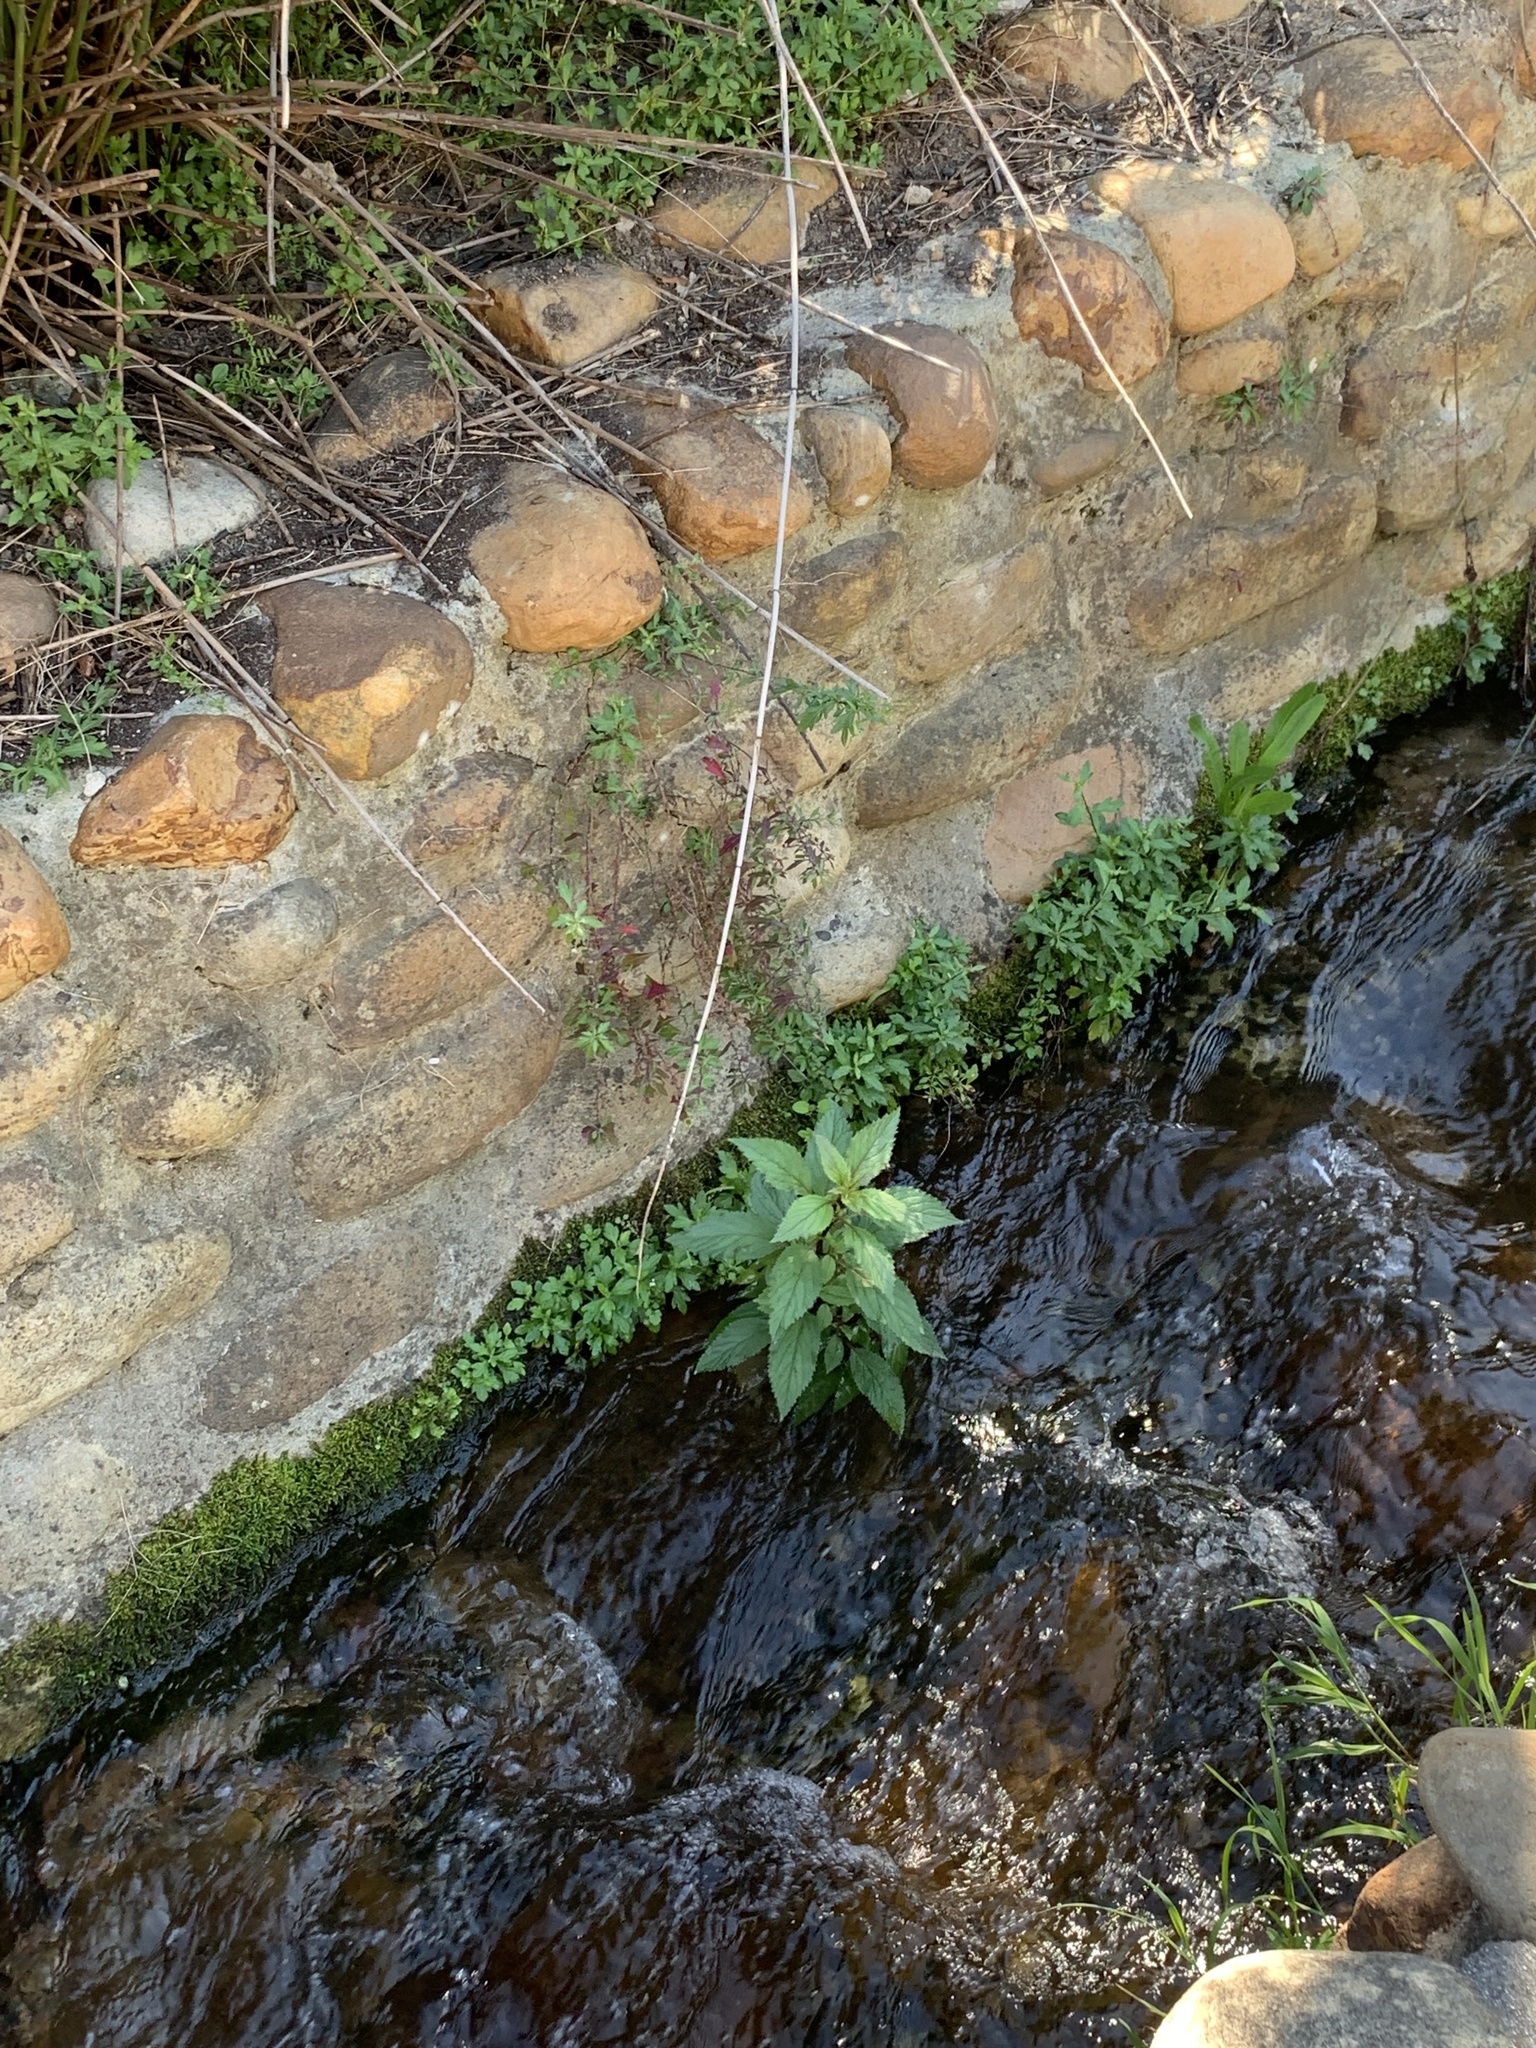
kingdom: Plantae
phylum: Tracheophyta
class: Magnoliopsida
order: Asterales
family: Campanulaceae
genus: Trachelium
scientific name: Trachelium caeruleum
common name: Throatwort
